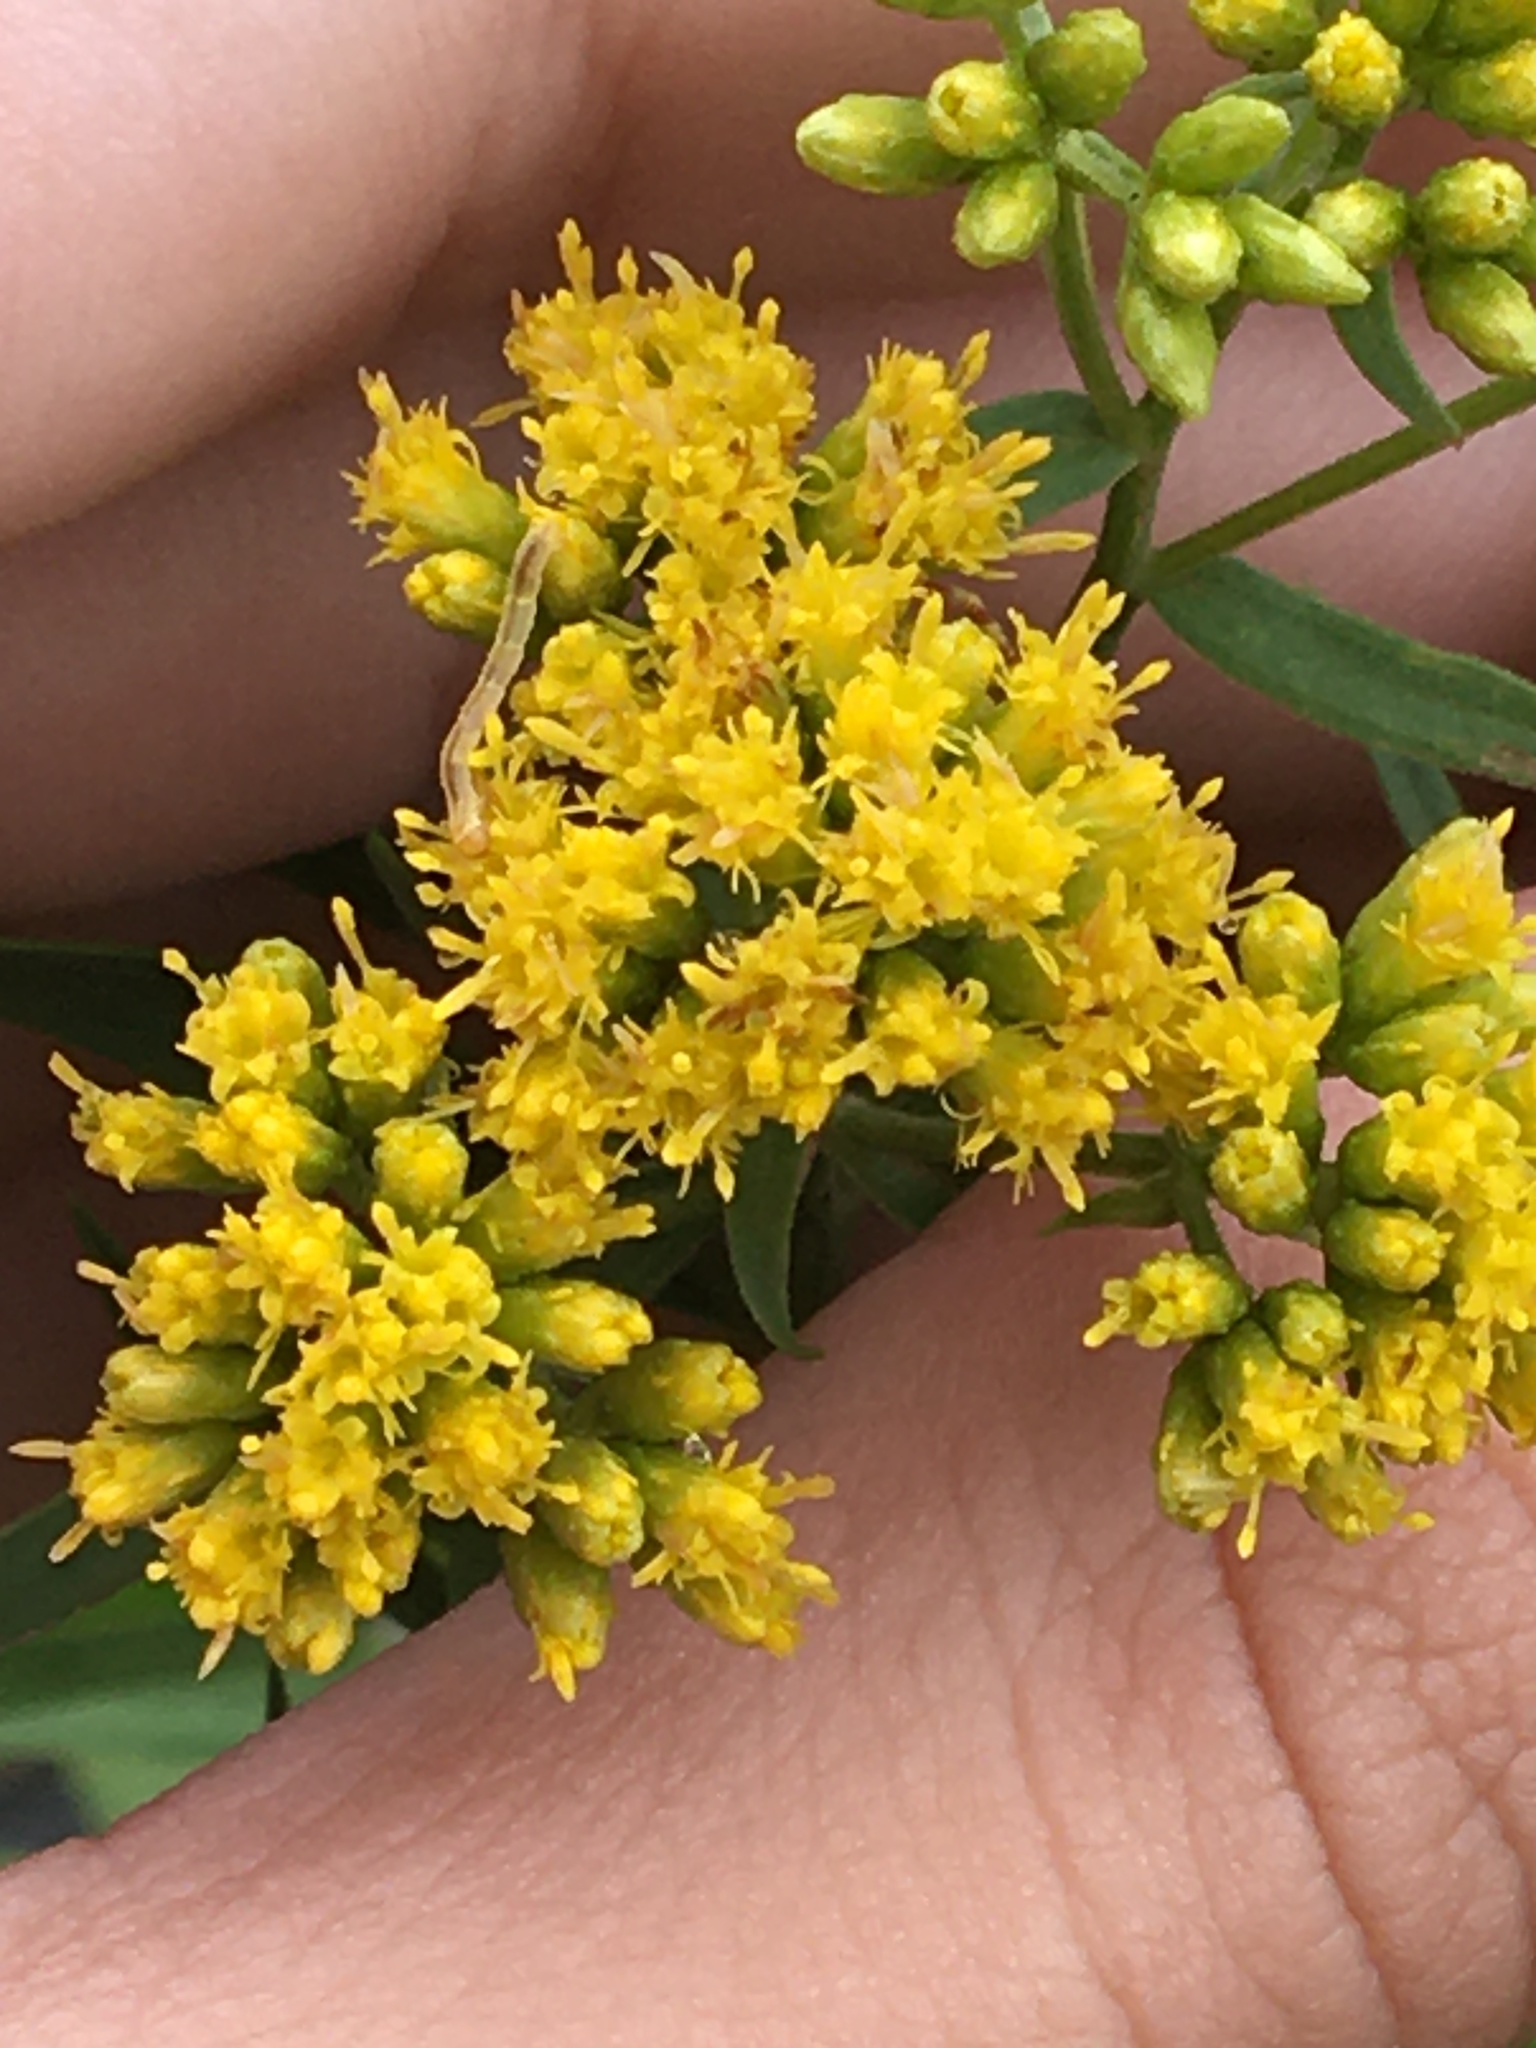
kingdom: Plantae
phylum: Tracheophyta
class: Magnoliopsida
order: Asterales
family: Asteraceae
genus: Euthamia
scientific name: Euthamia graminifolia
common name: Common goldentop
